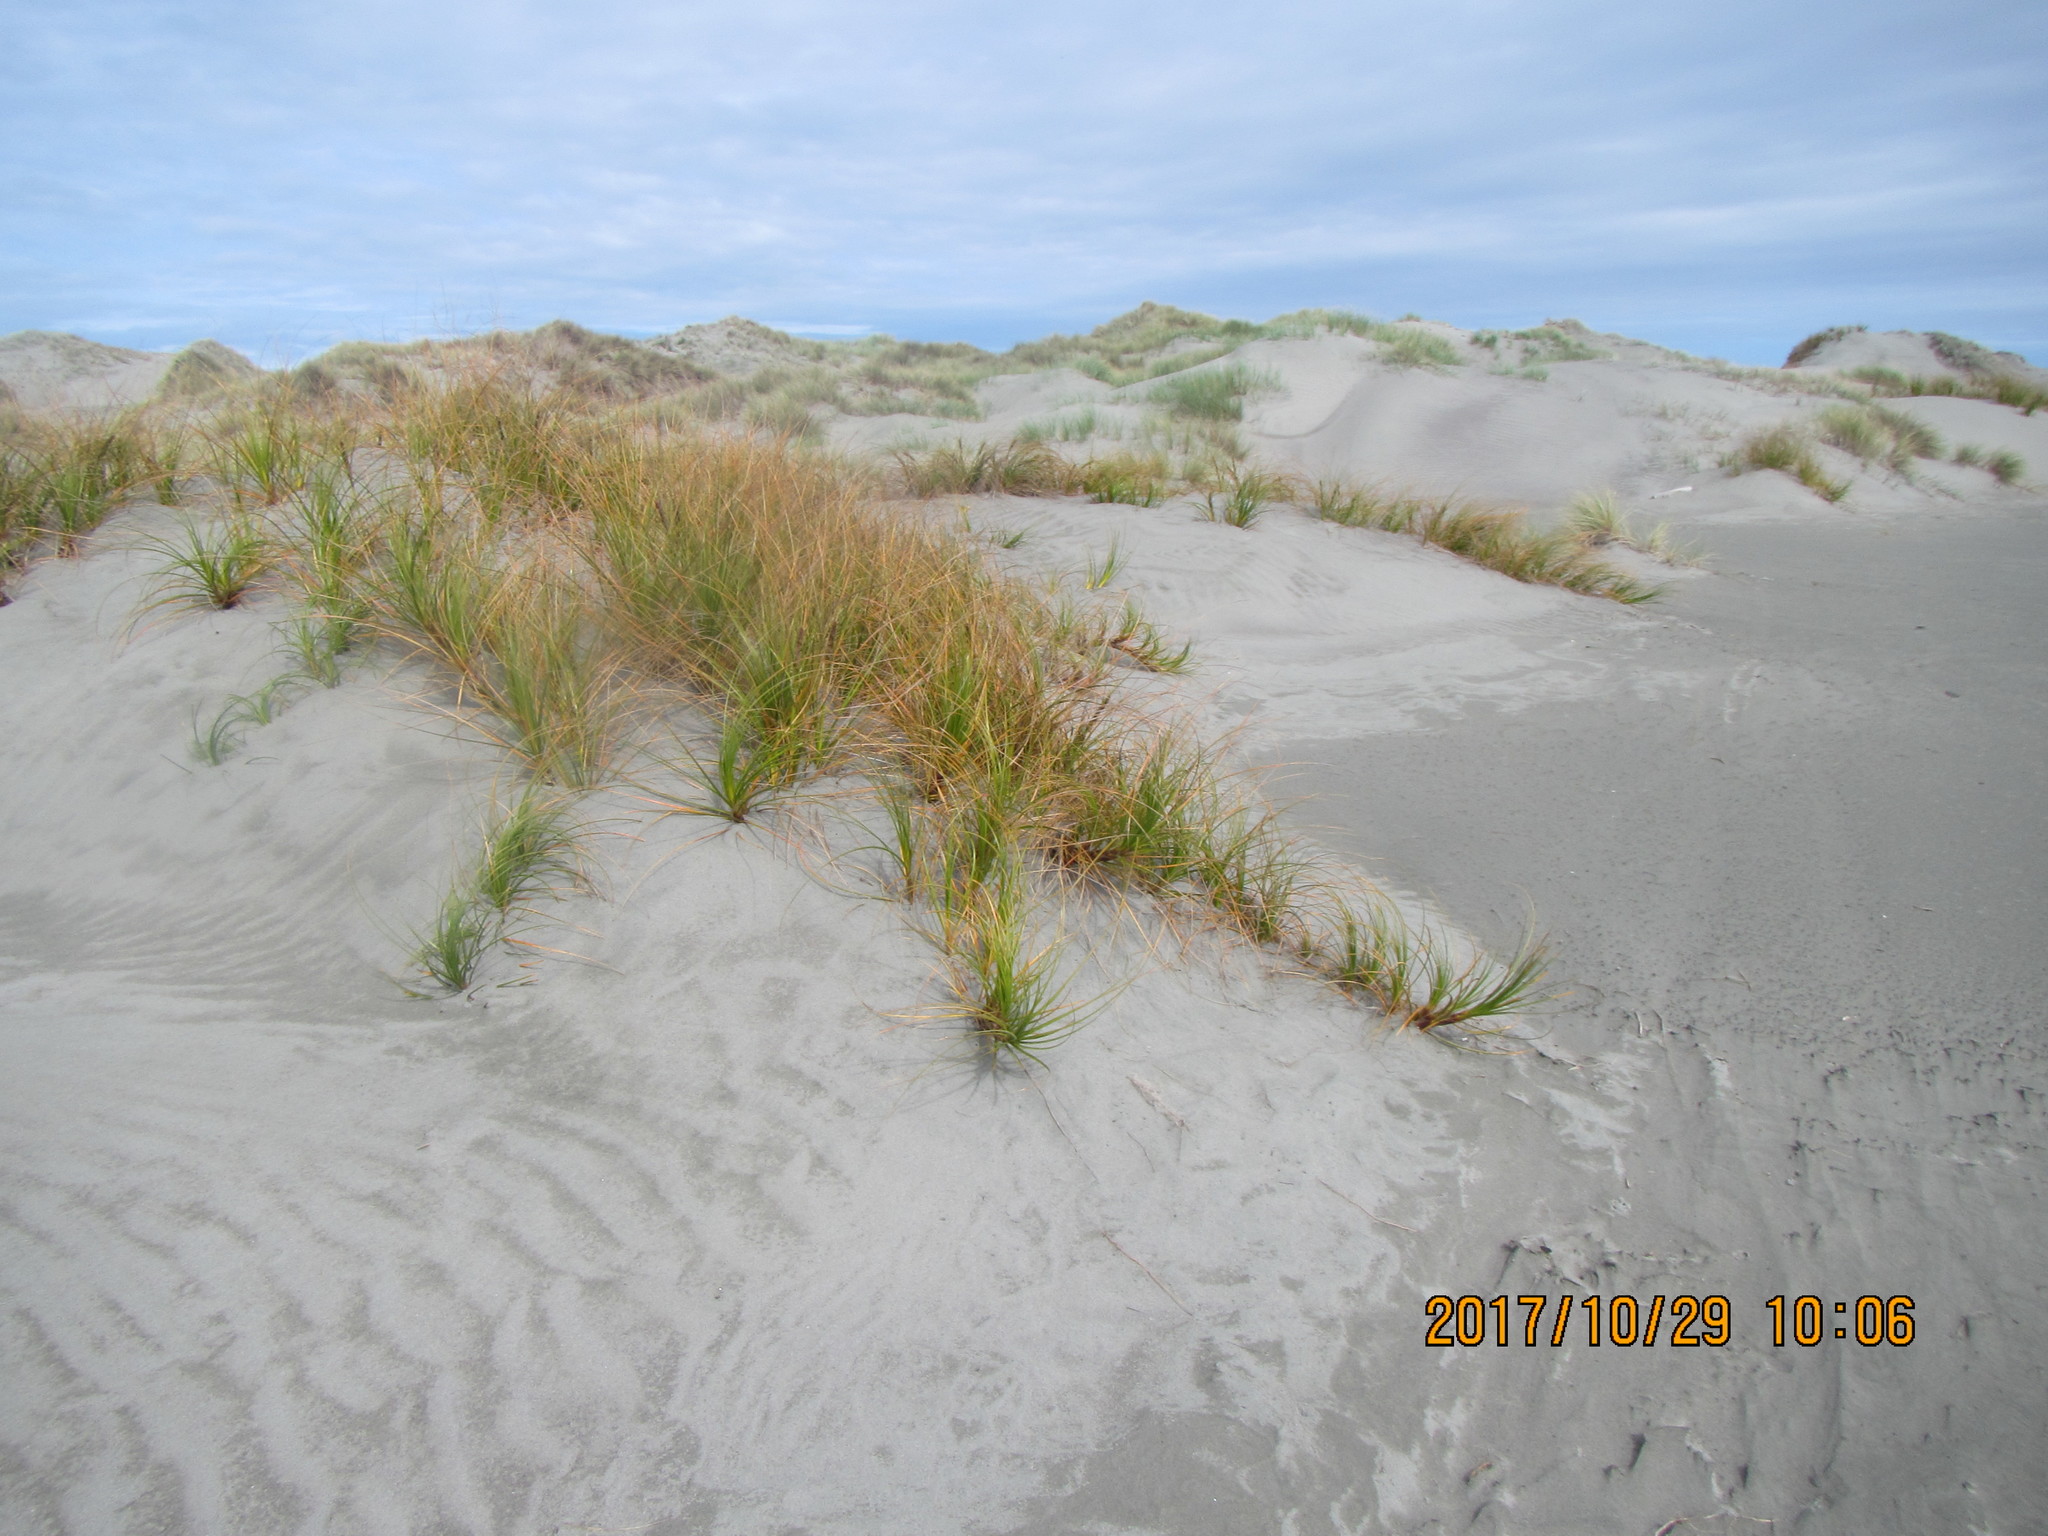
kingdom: Plantae
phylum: Tracheophyta
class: Liliopsida
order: Poales
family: Cyperaceae
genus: Ficinia
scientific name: Ficinia spiralis
